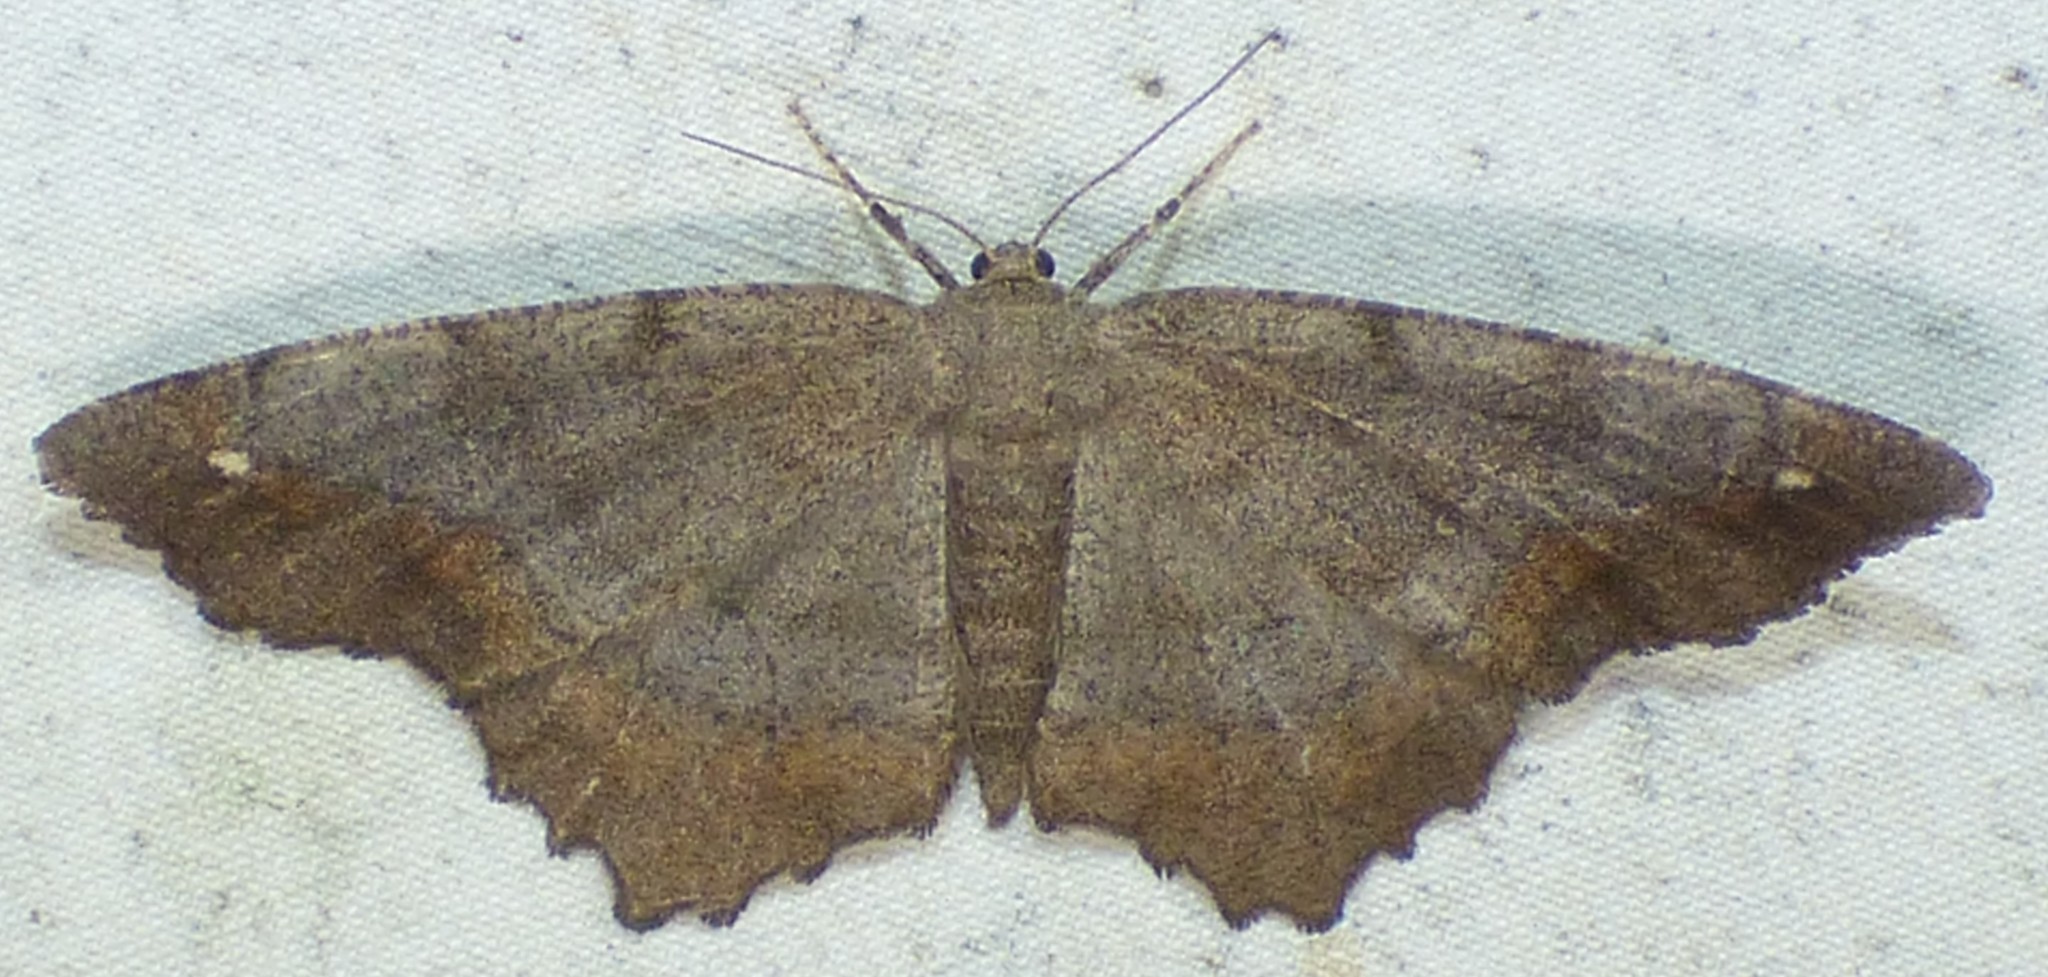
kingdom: Animalia
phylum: Arthropoda
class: Insecta
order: Lepidoptera
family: Geometridae
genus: Hypagyrtis
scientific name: Hypagyrtis esther
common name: Esther moth
